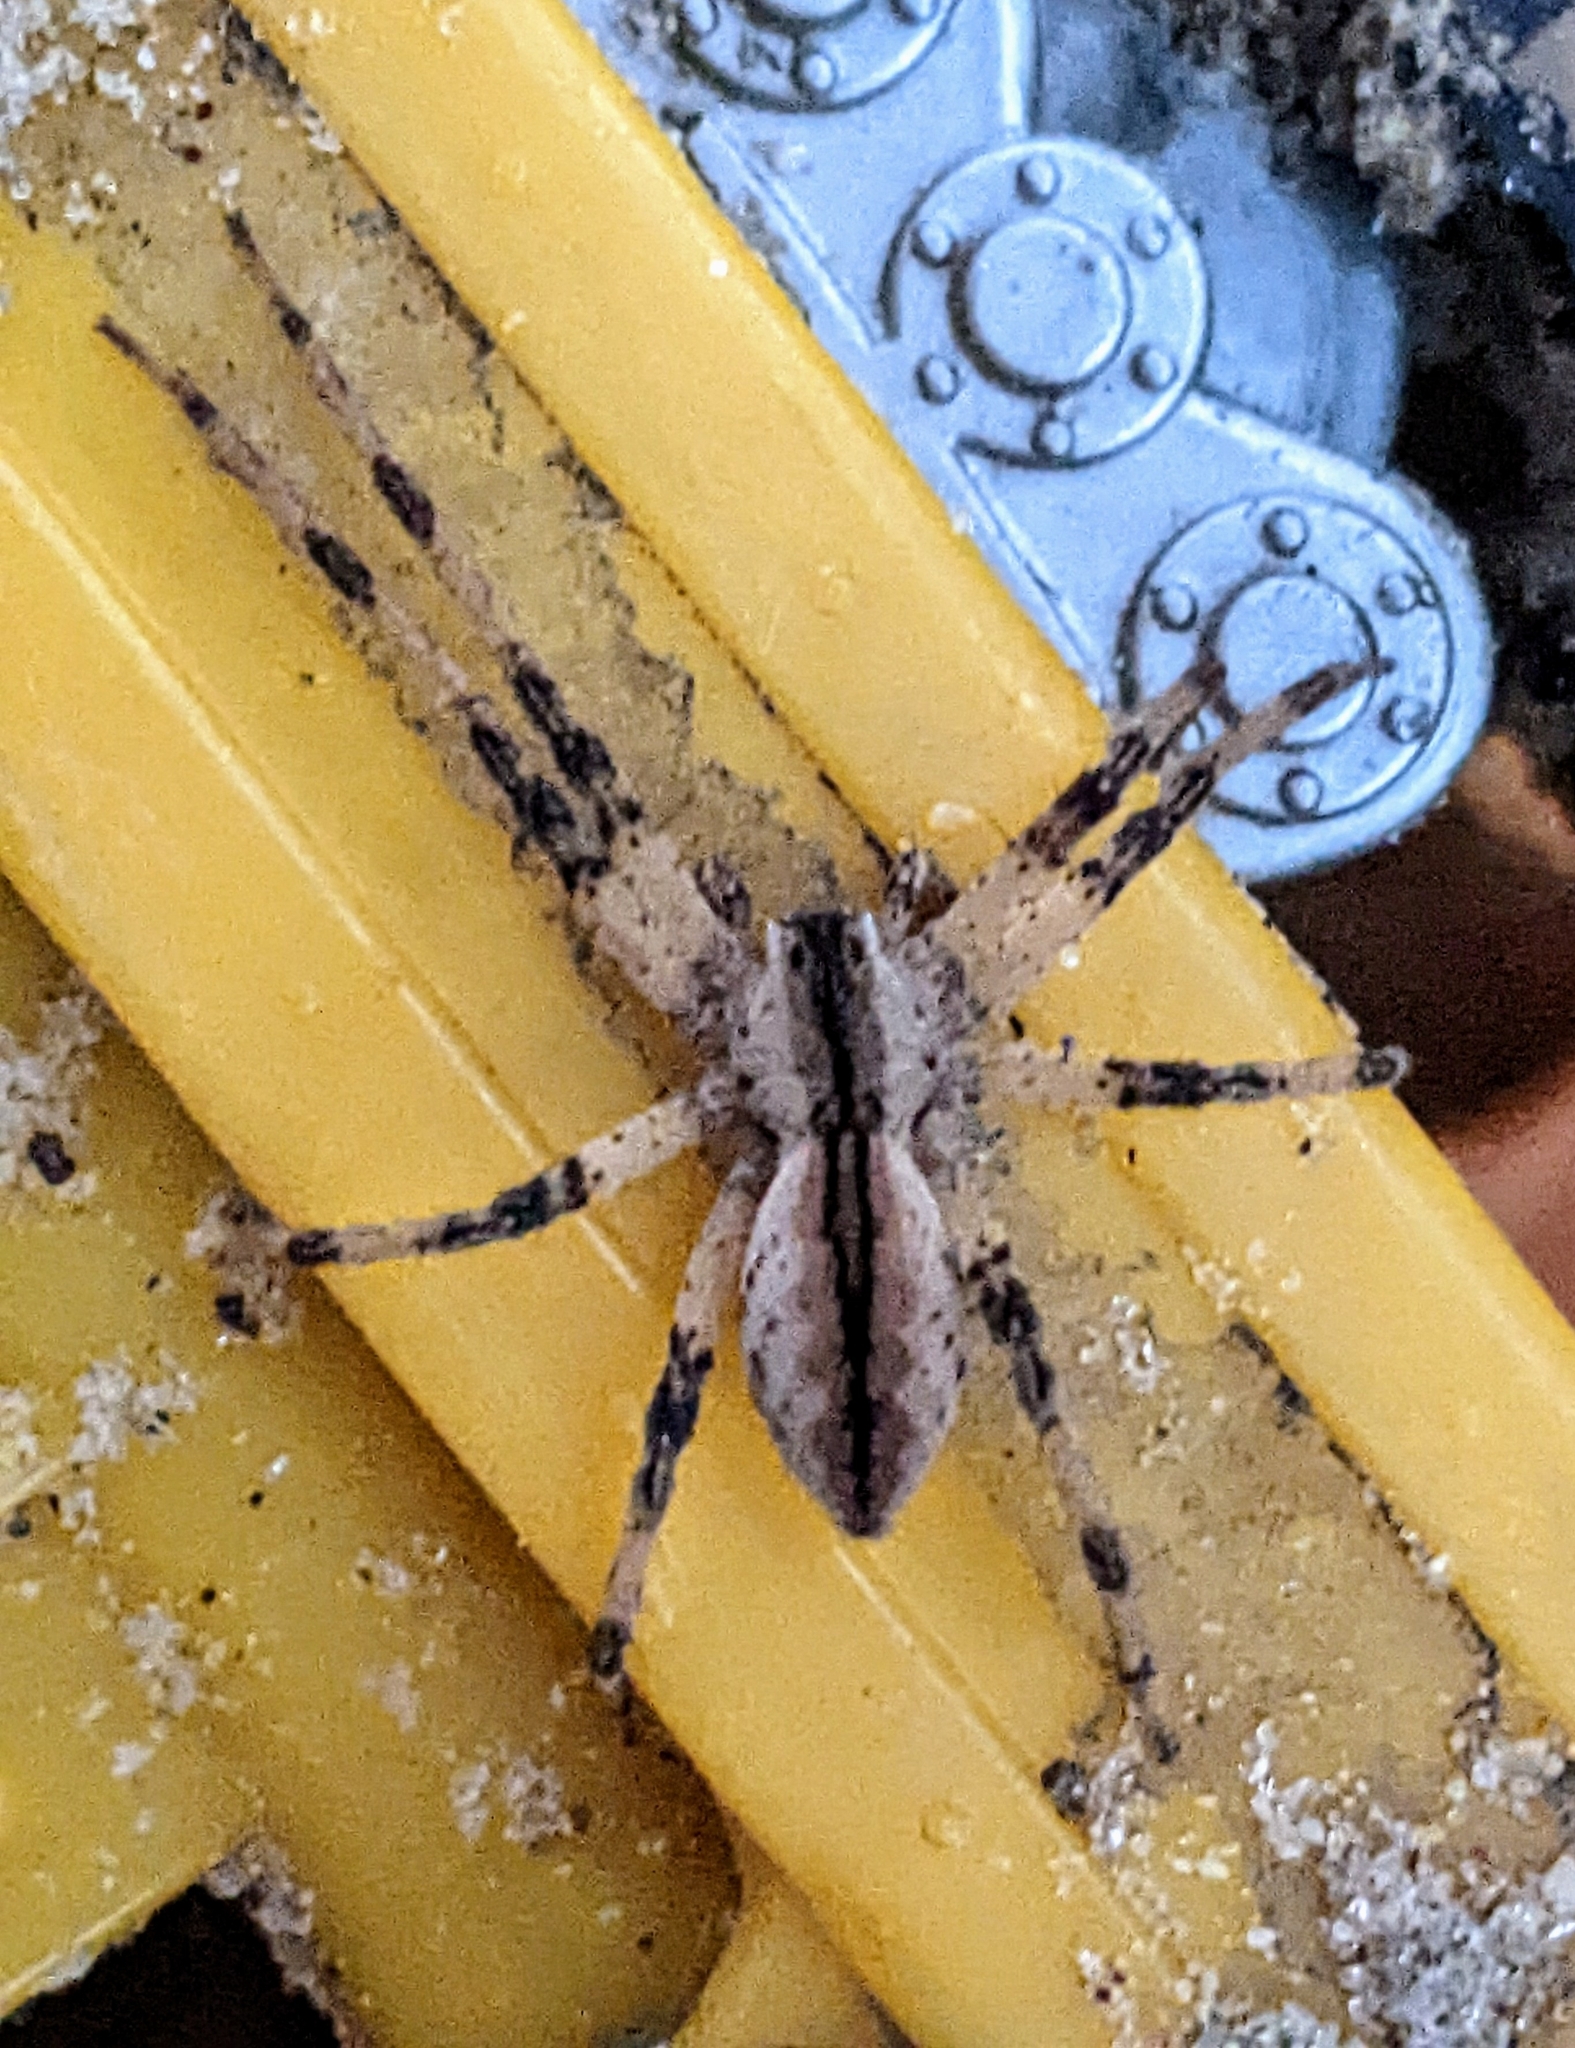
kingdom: Animalia
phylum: Arthropoda
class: Arachnida
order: Araneae
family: Pisauridae
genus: Pisaurina
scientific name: Pisaurina mira
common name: American nursery web spider
